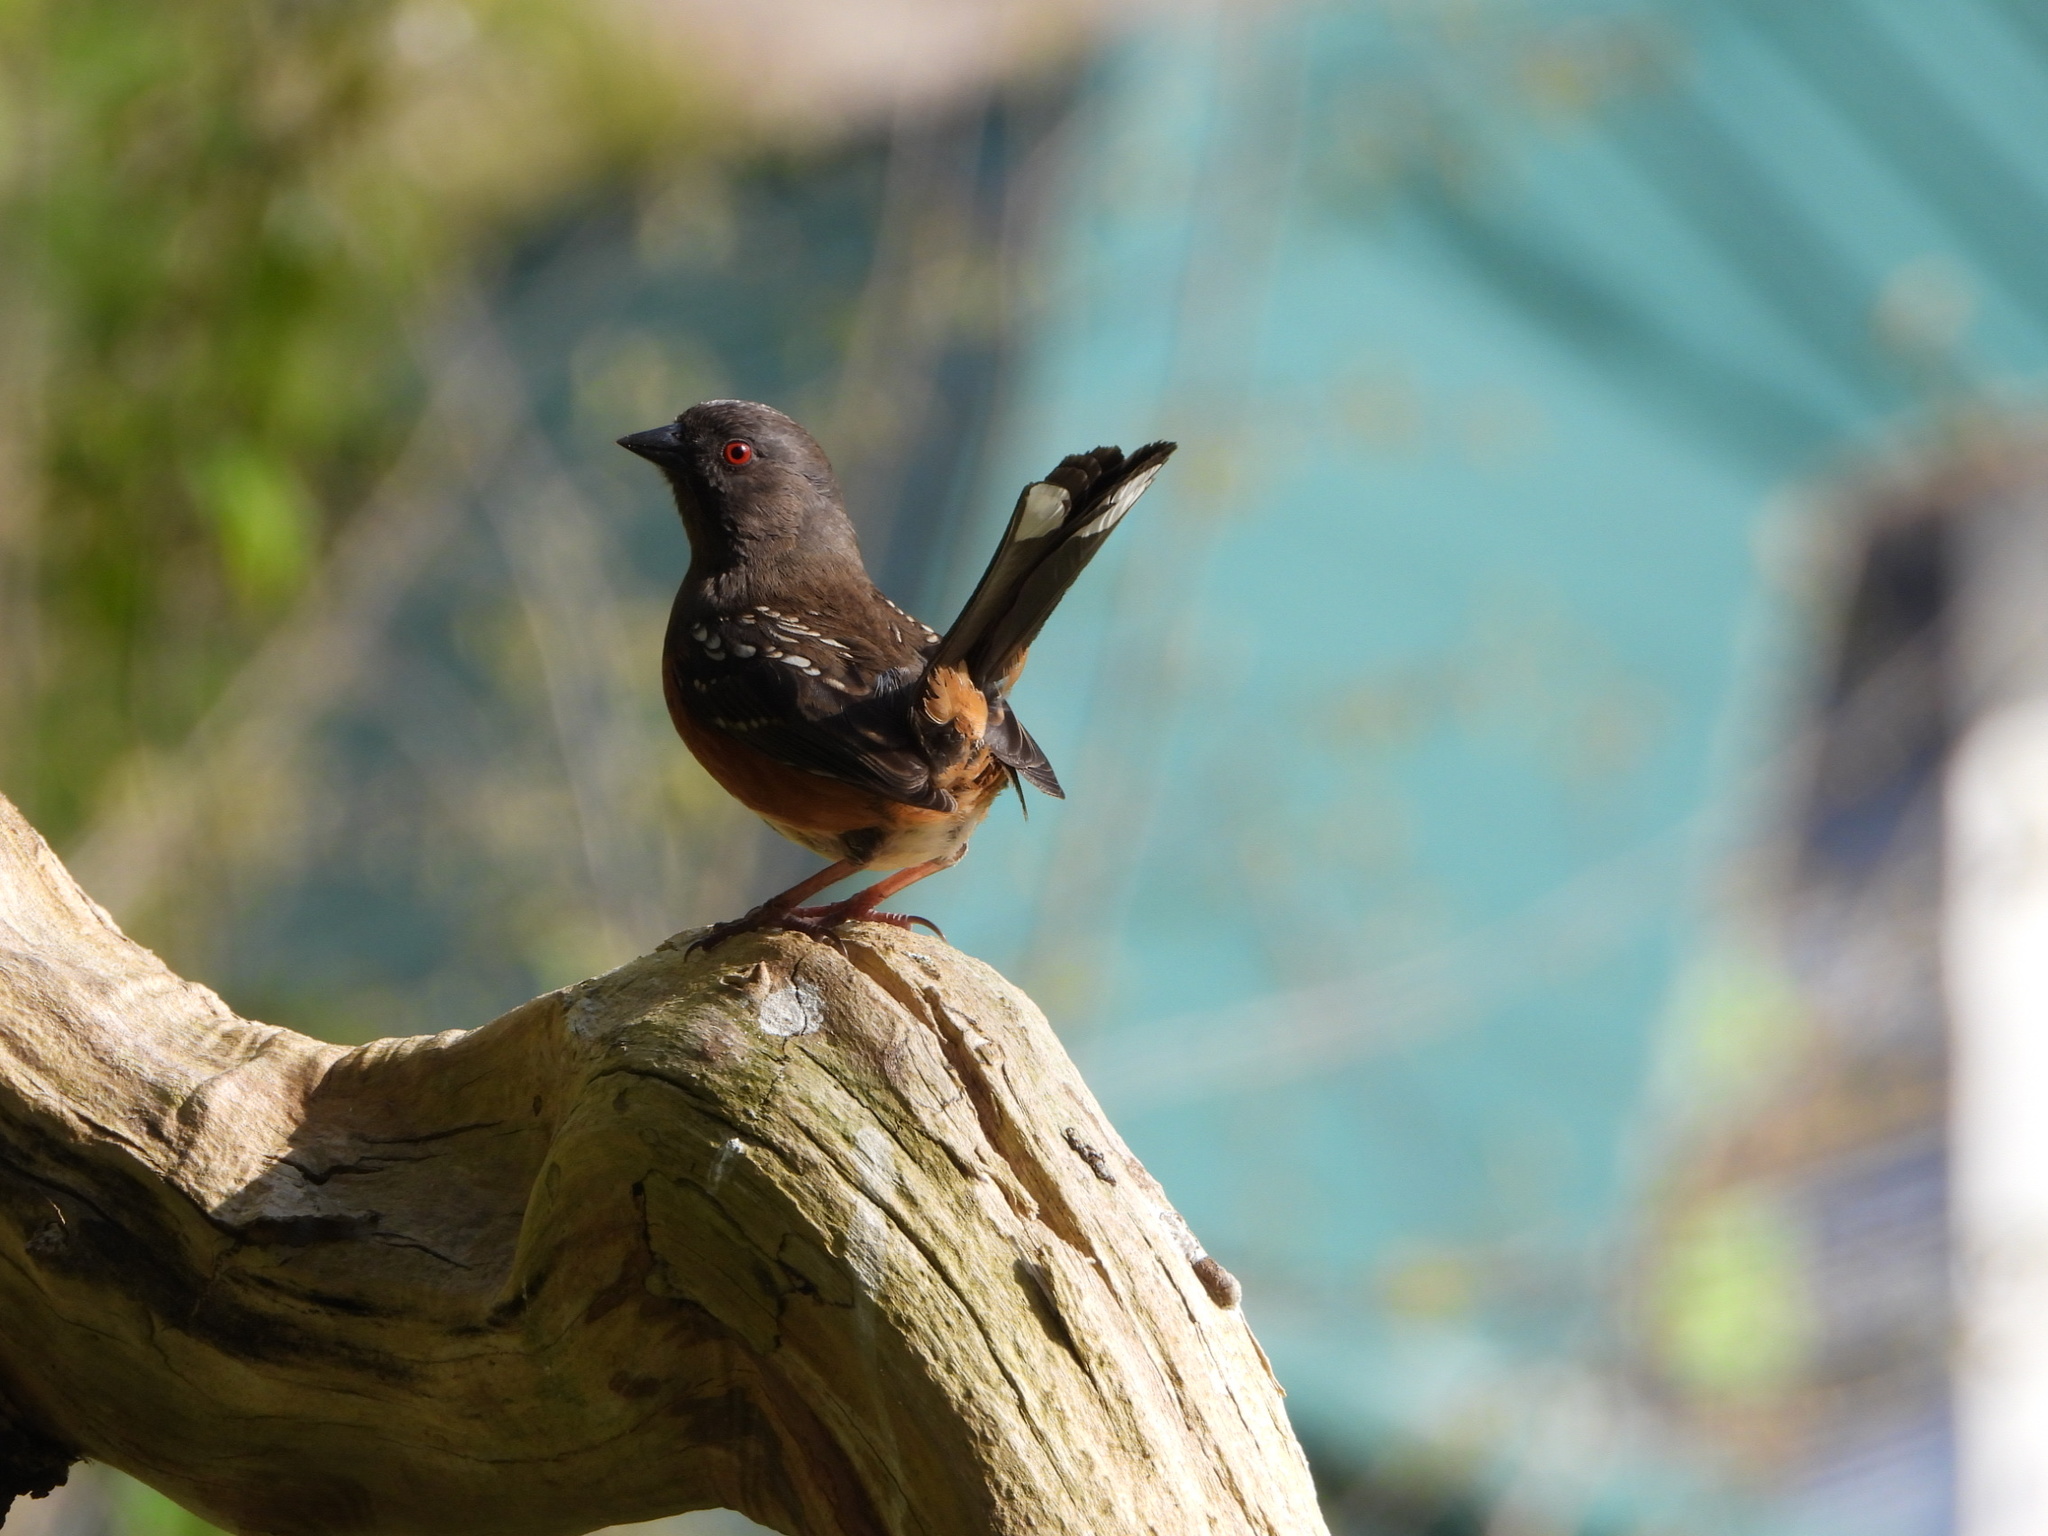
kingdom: Animalia
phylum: Chordata
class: Aves
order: Passeriformes
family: Passerellidae
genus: Pipilo
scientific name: Pipilo maculatus
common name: Spotted towhee
